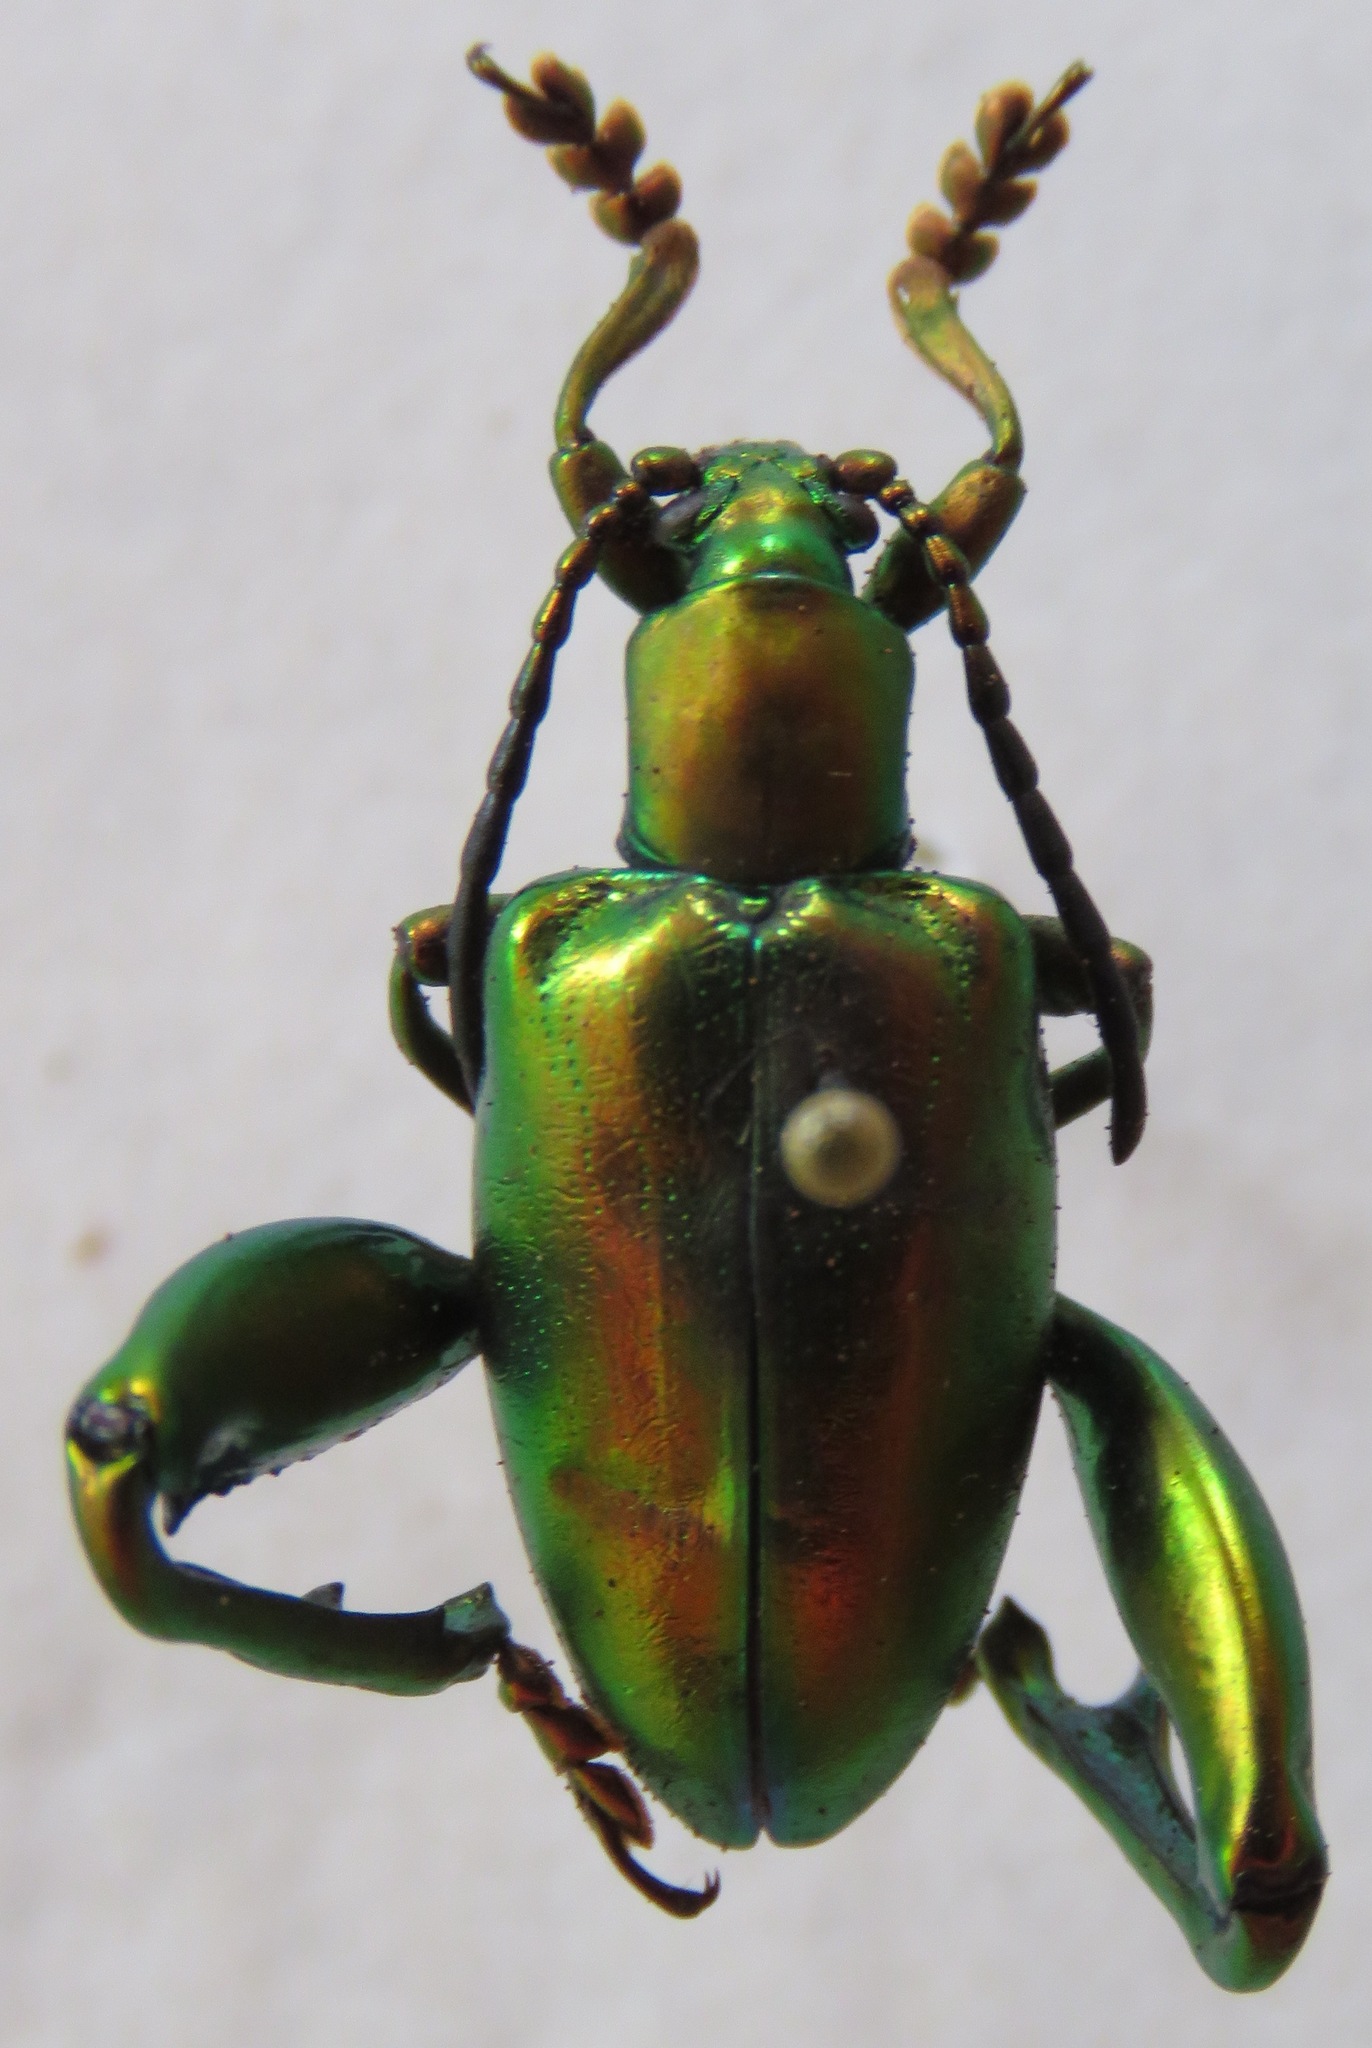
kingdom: Animalia
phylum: Arthropoda
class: Insecta
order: Coleoptera
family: Chrysomelidae
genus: Sagra
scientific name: Sagra femorata
